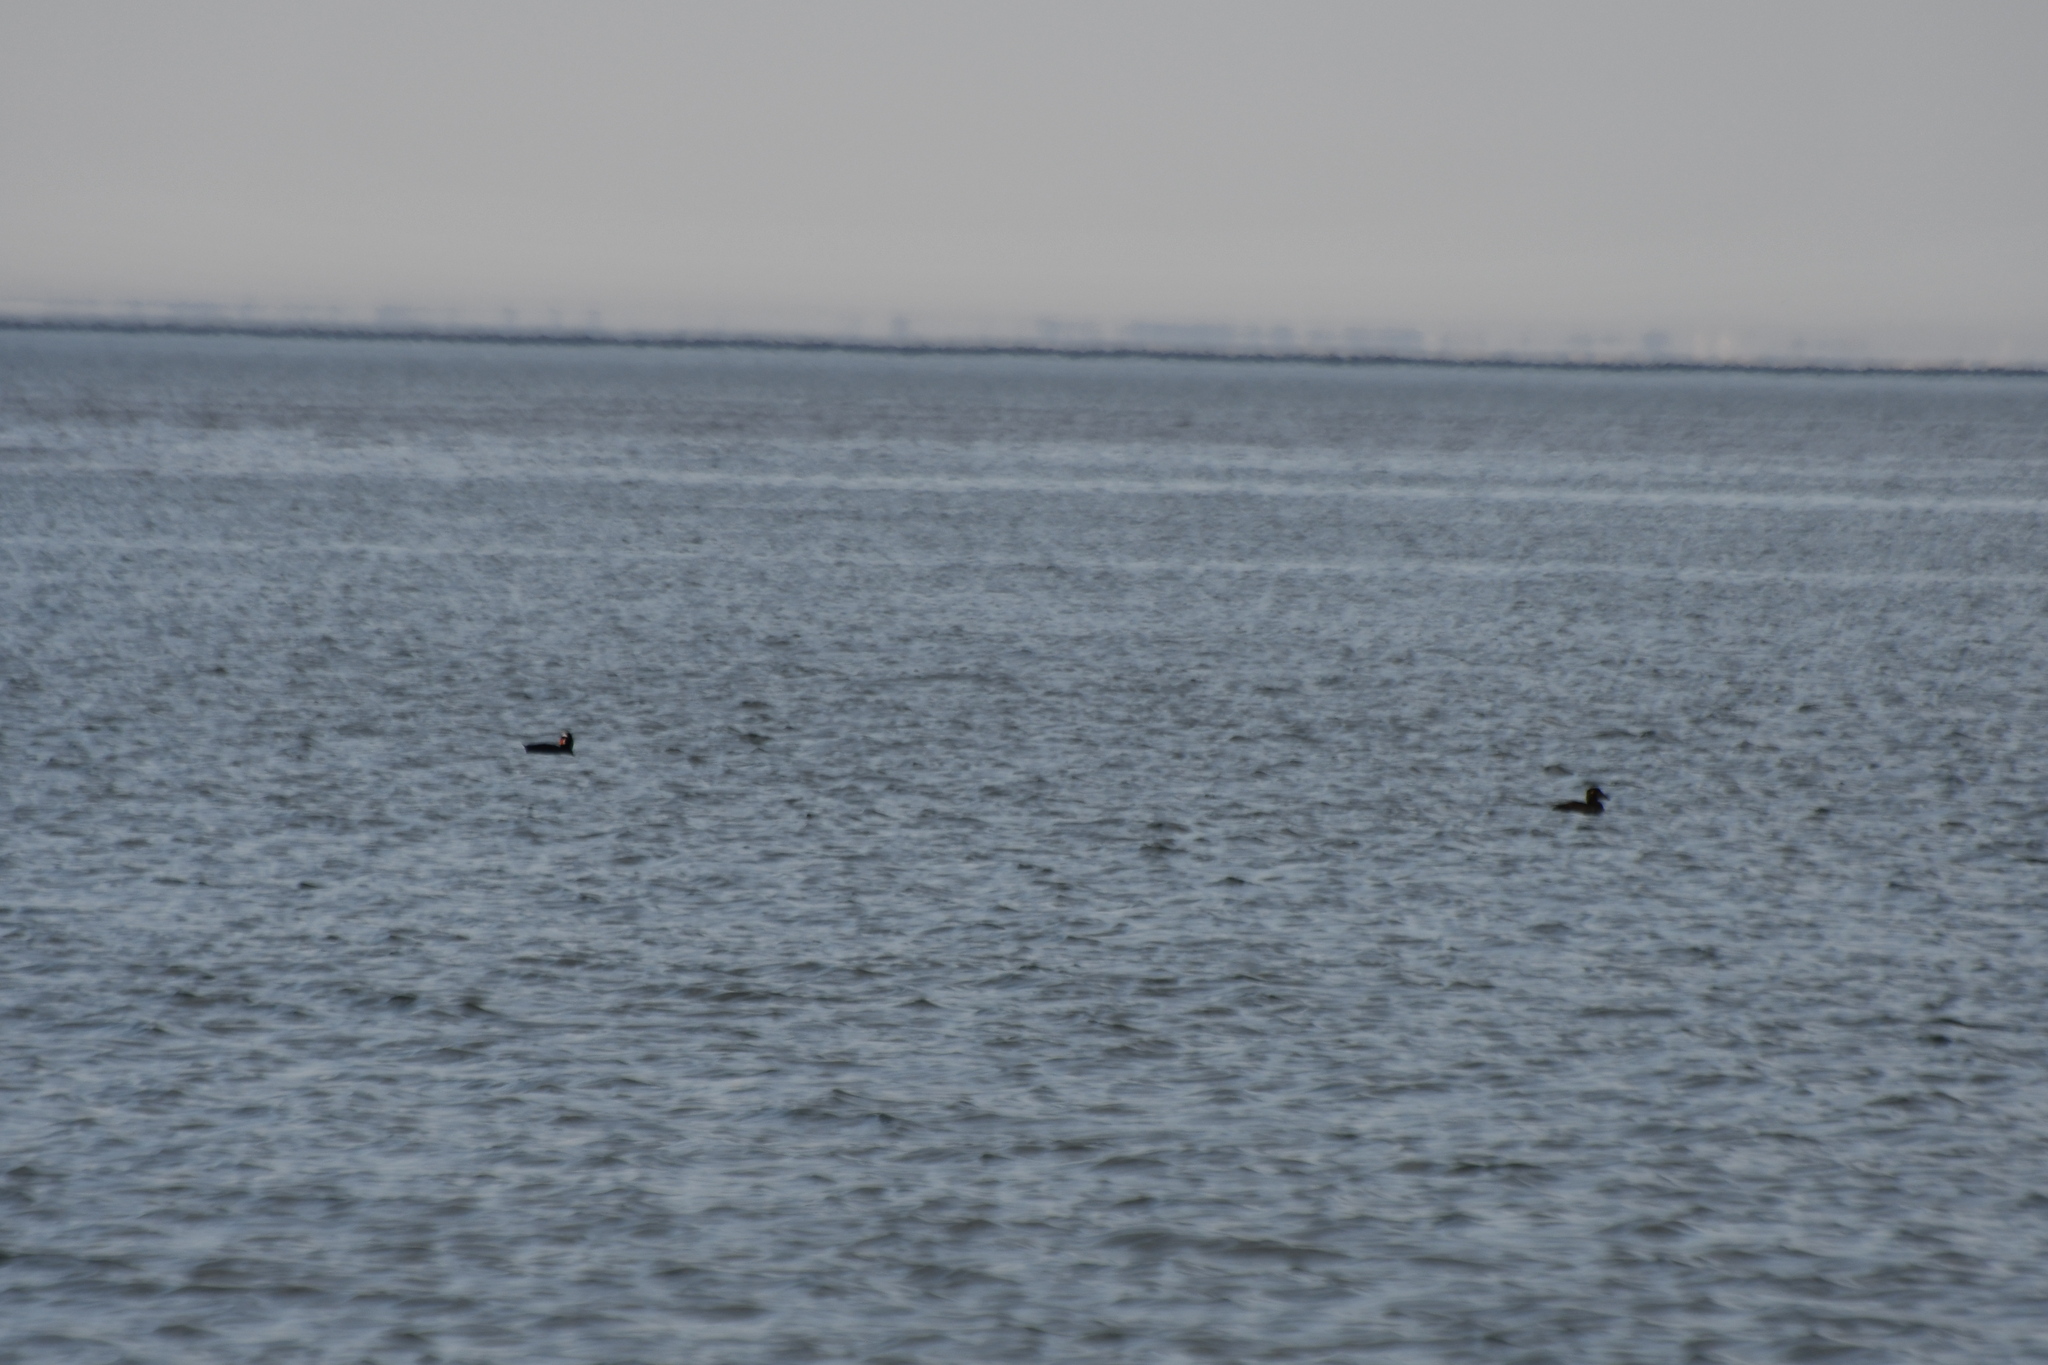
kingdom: Animalia
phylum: Chordata
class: Aves
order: Anseriformes
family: Anatidae
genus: Melanitta
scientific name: Melanitta perspicillata
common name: Surf scoter
